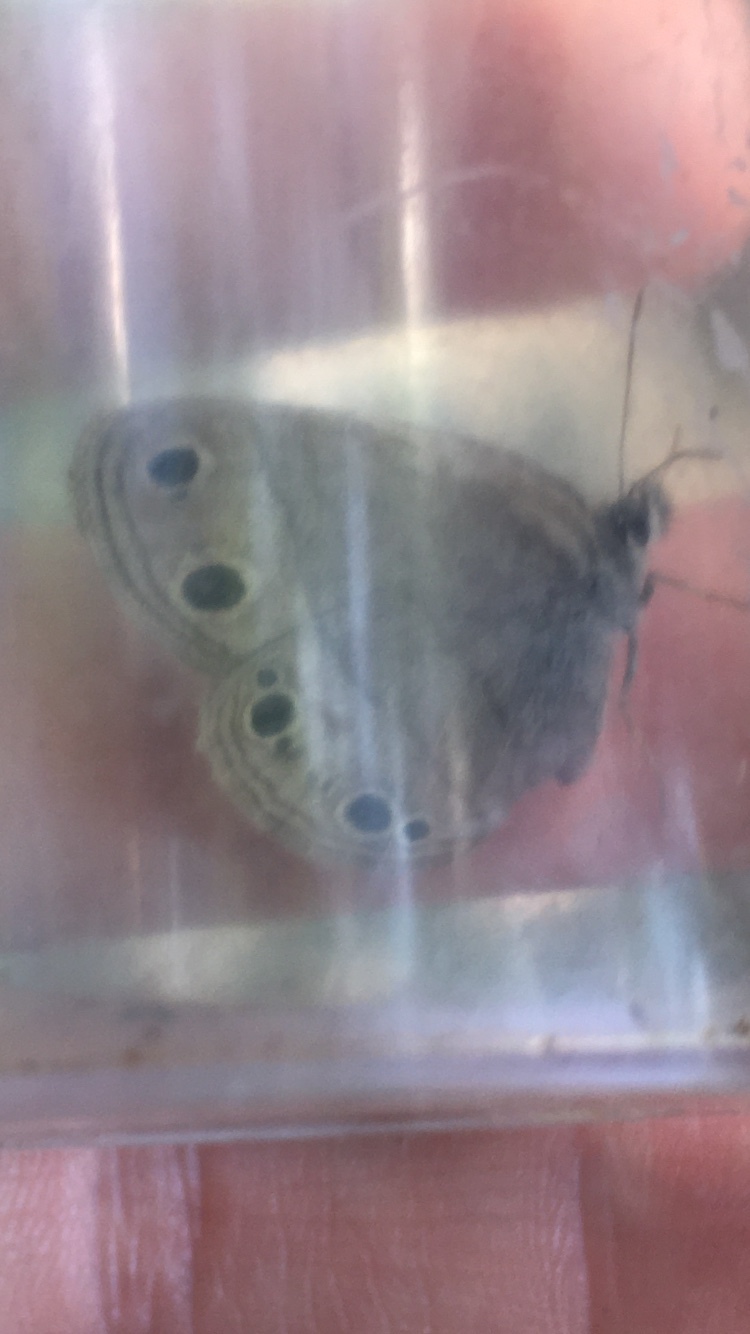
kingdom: Animalia
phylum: Arthropoda
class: Insecta
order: Lepidoptera
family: Nymphalidae
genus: Euptychia
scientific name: Euptychia cymela
